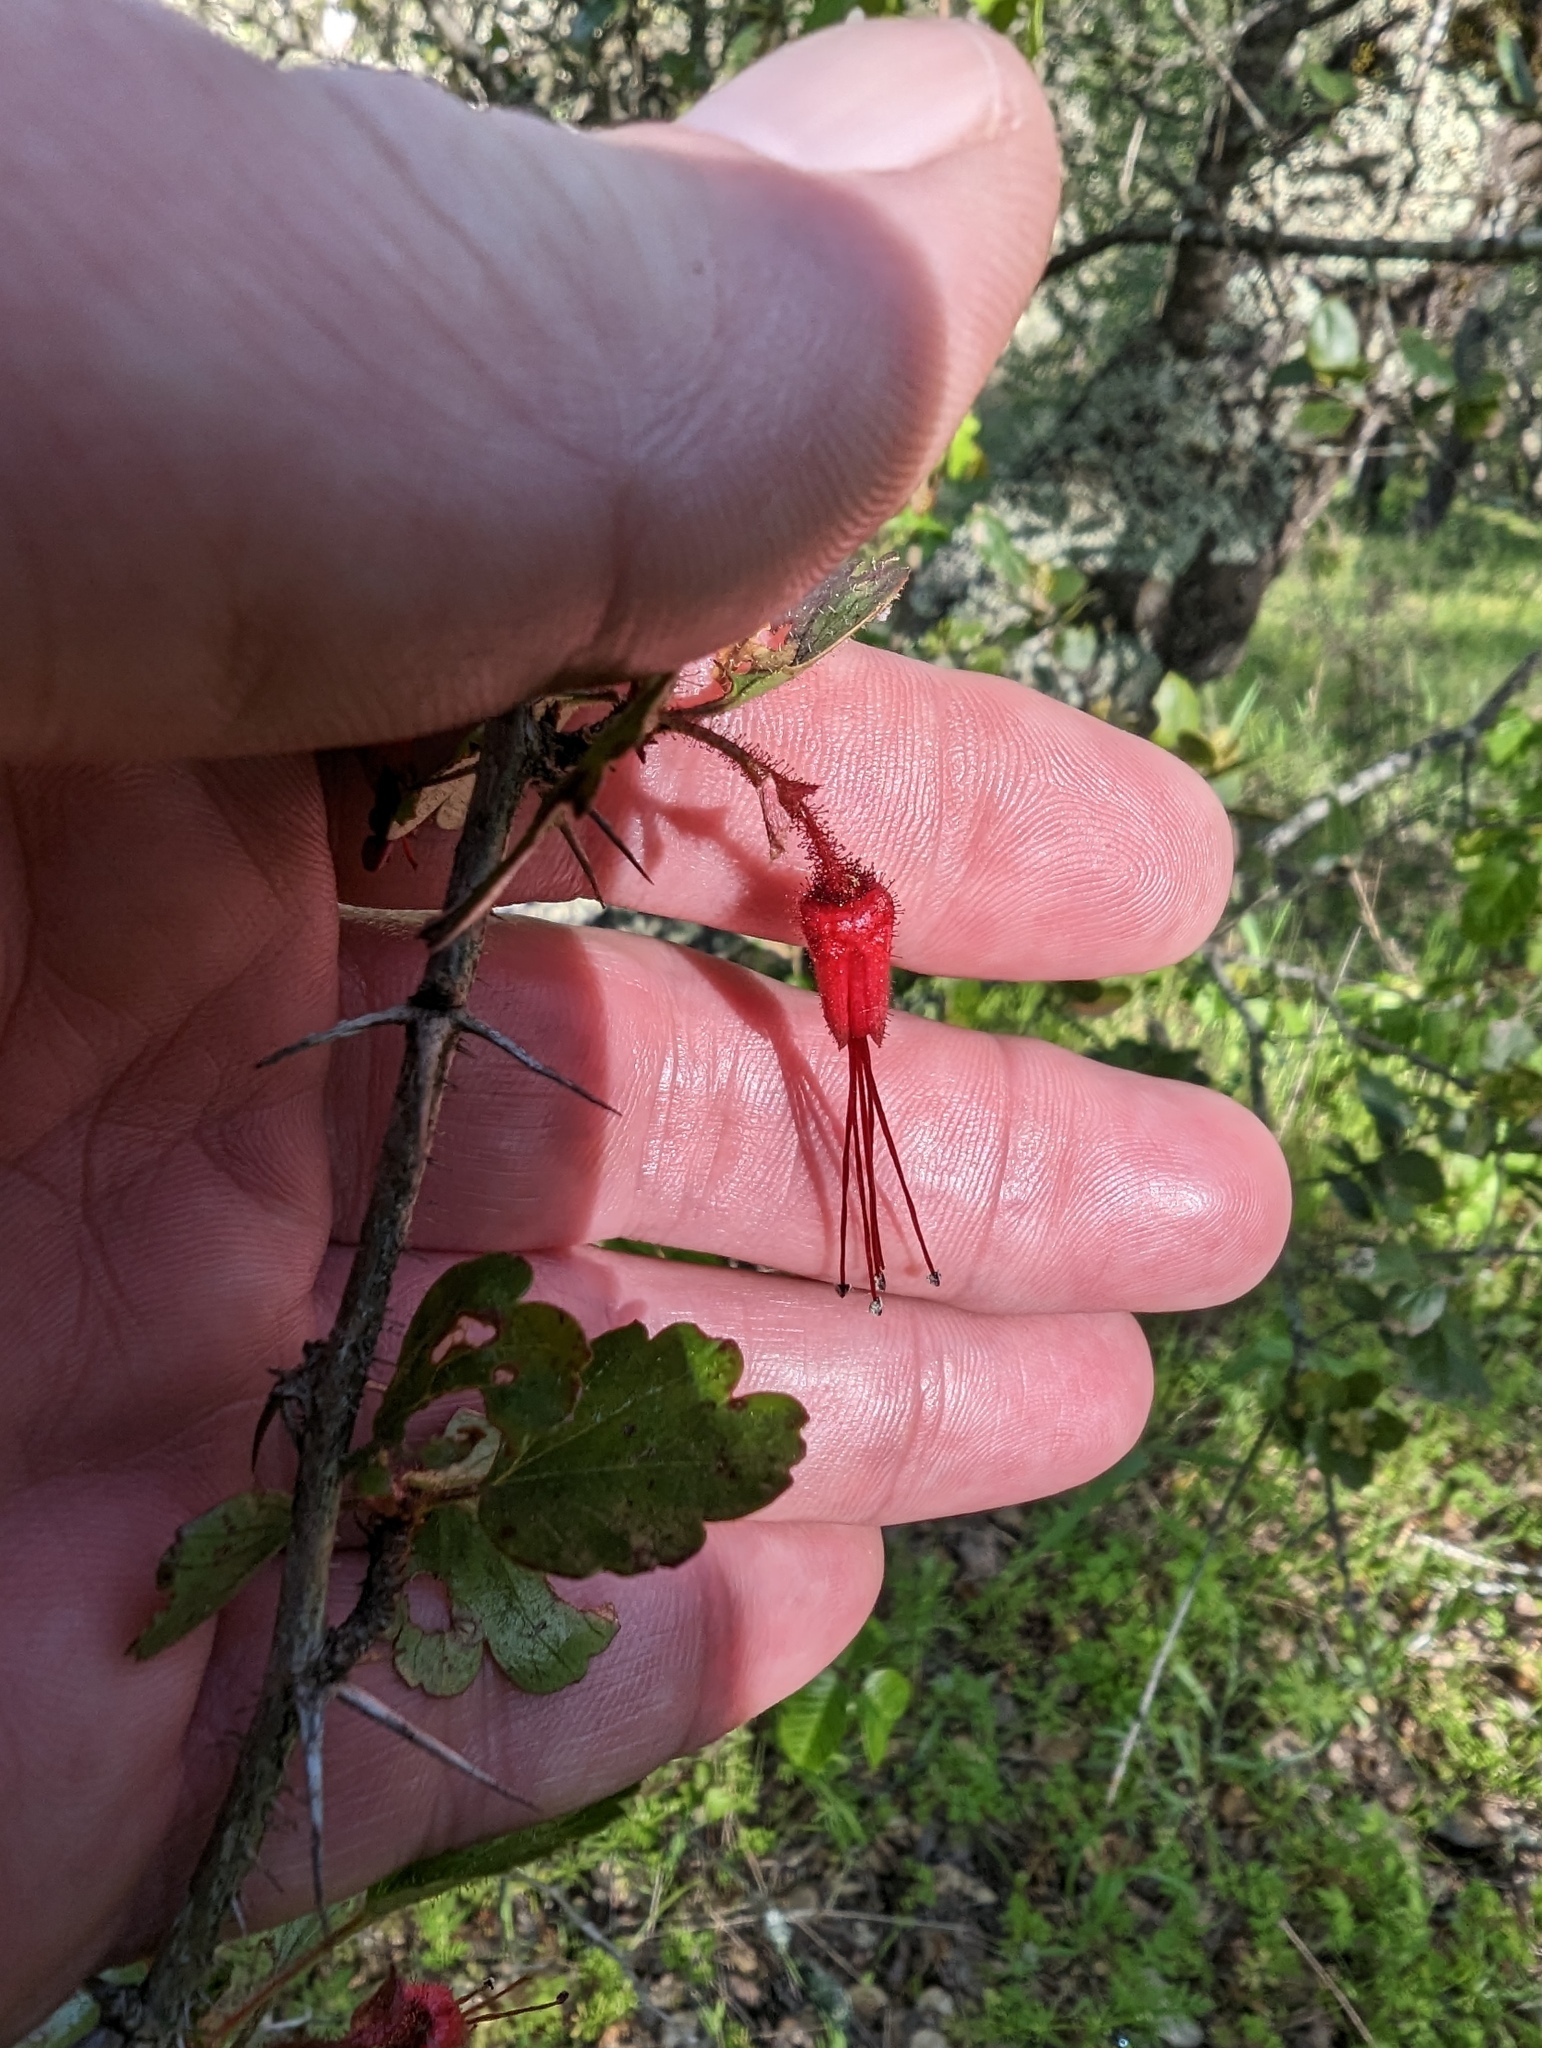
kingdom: Plantae
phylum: Tracheophyta
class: Magnoliopsida
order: Saxifragales
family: Grossulariaceae
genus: Ribes
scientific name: Ribes speciosum
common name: Fuchsia-flower gooseberry
